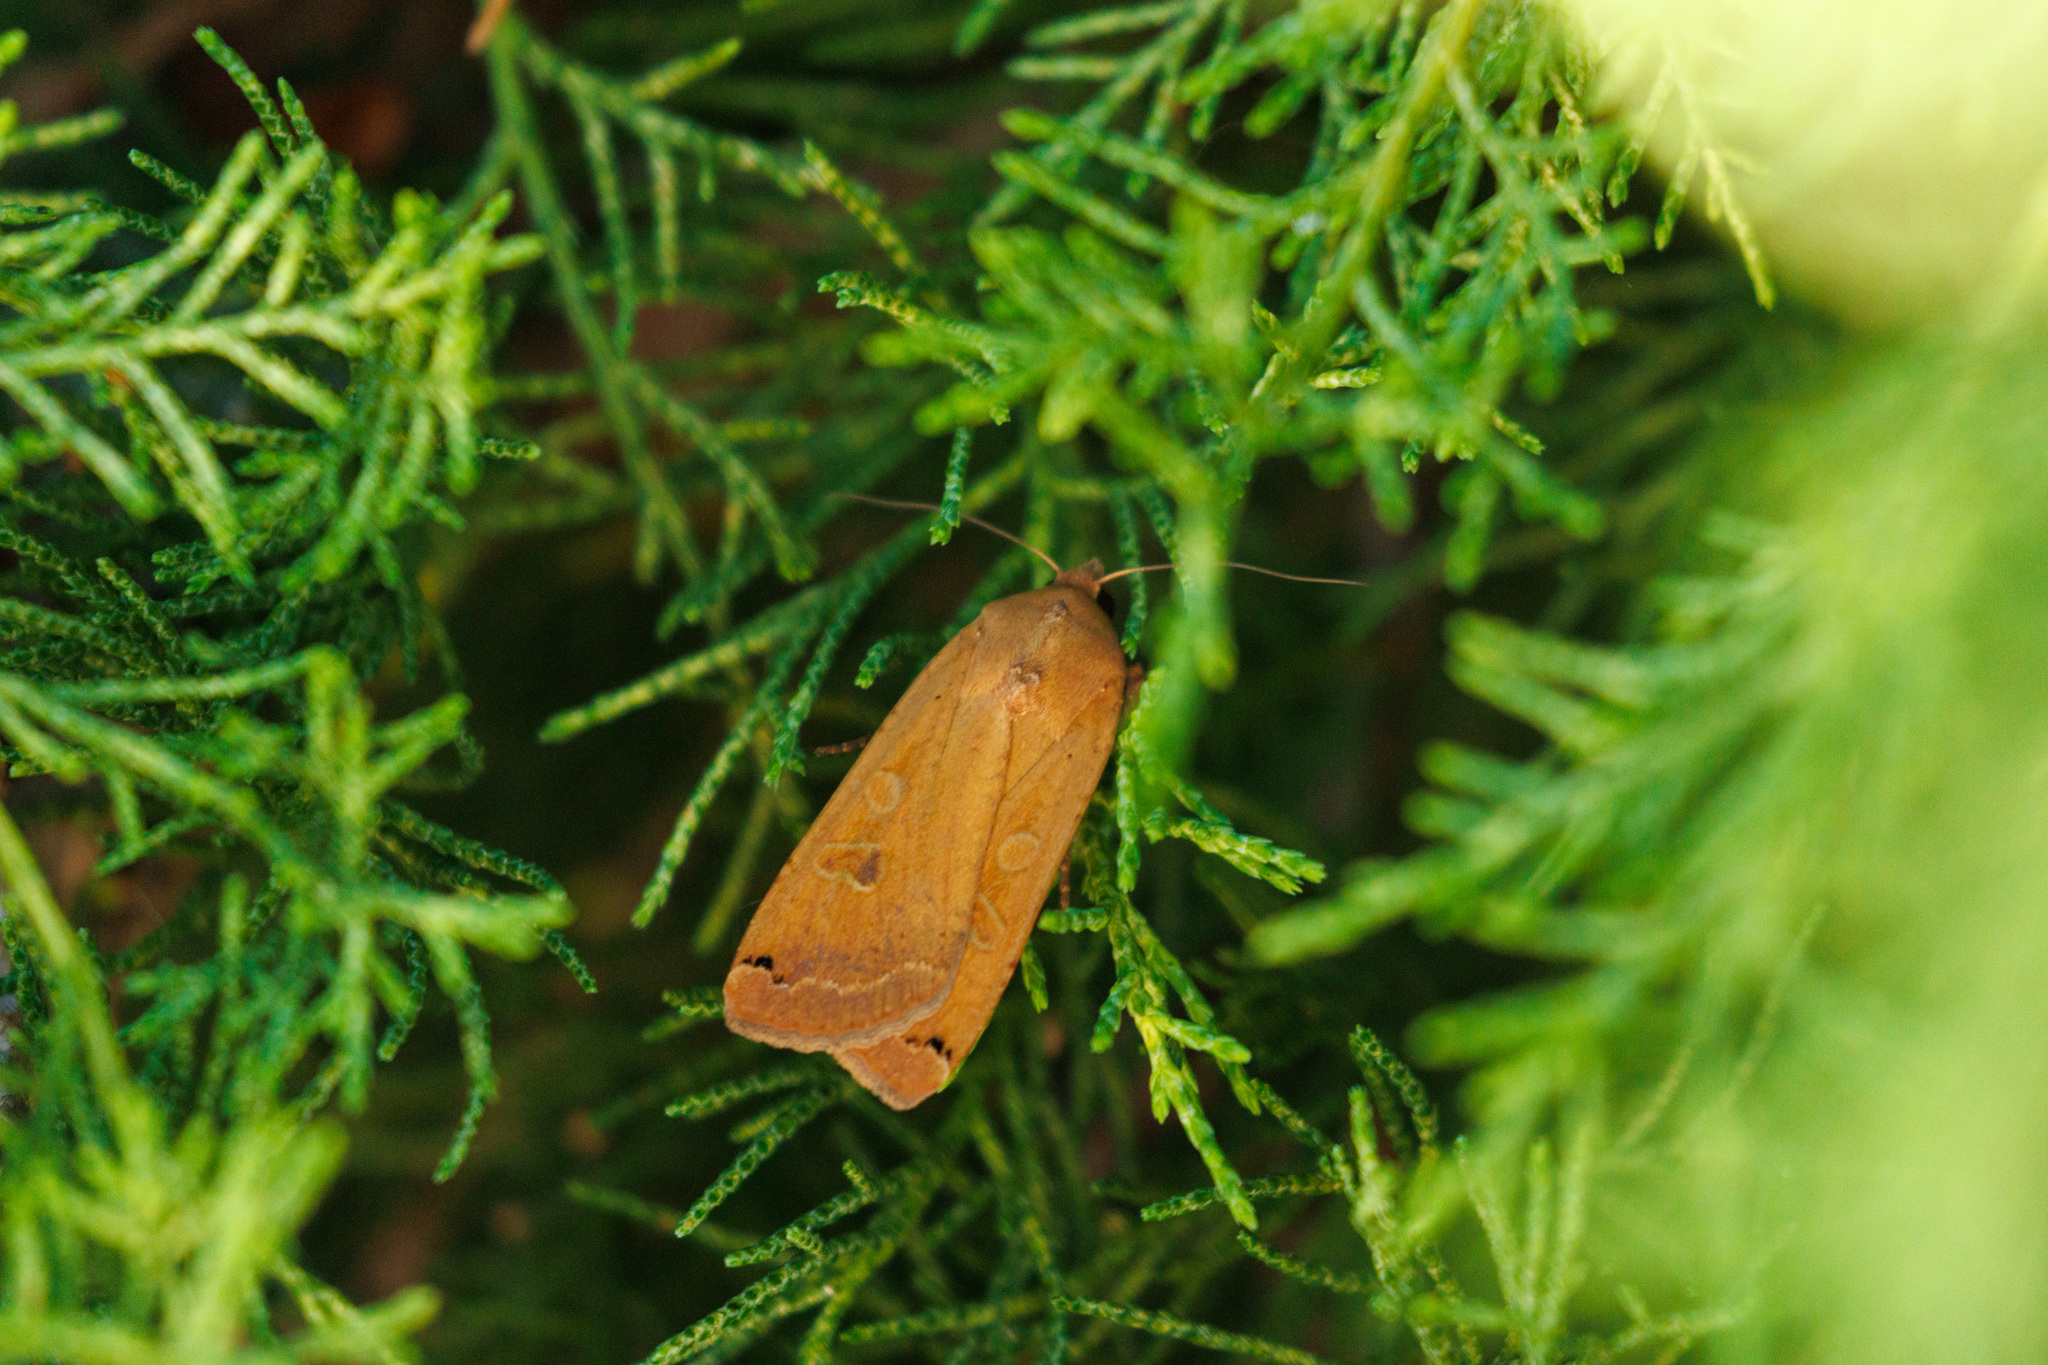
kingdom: Animalia
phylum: Arthropoda
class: Insecta
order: Lepidoptera
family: Noctuidae
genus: Noctua
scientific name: Noctua pronuba
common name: Large yellow underwing
